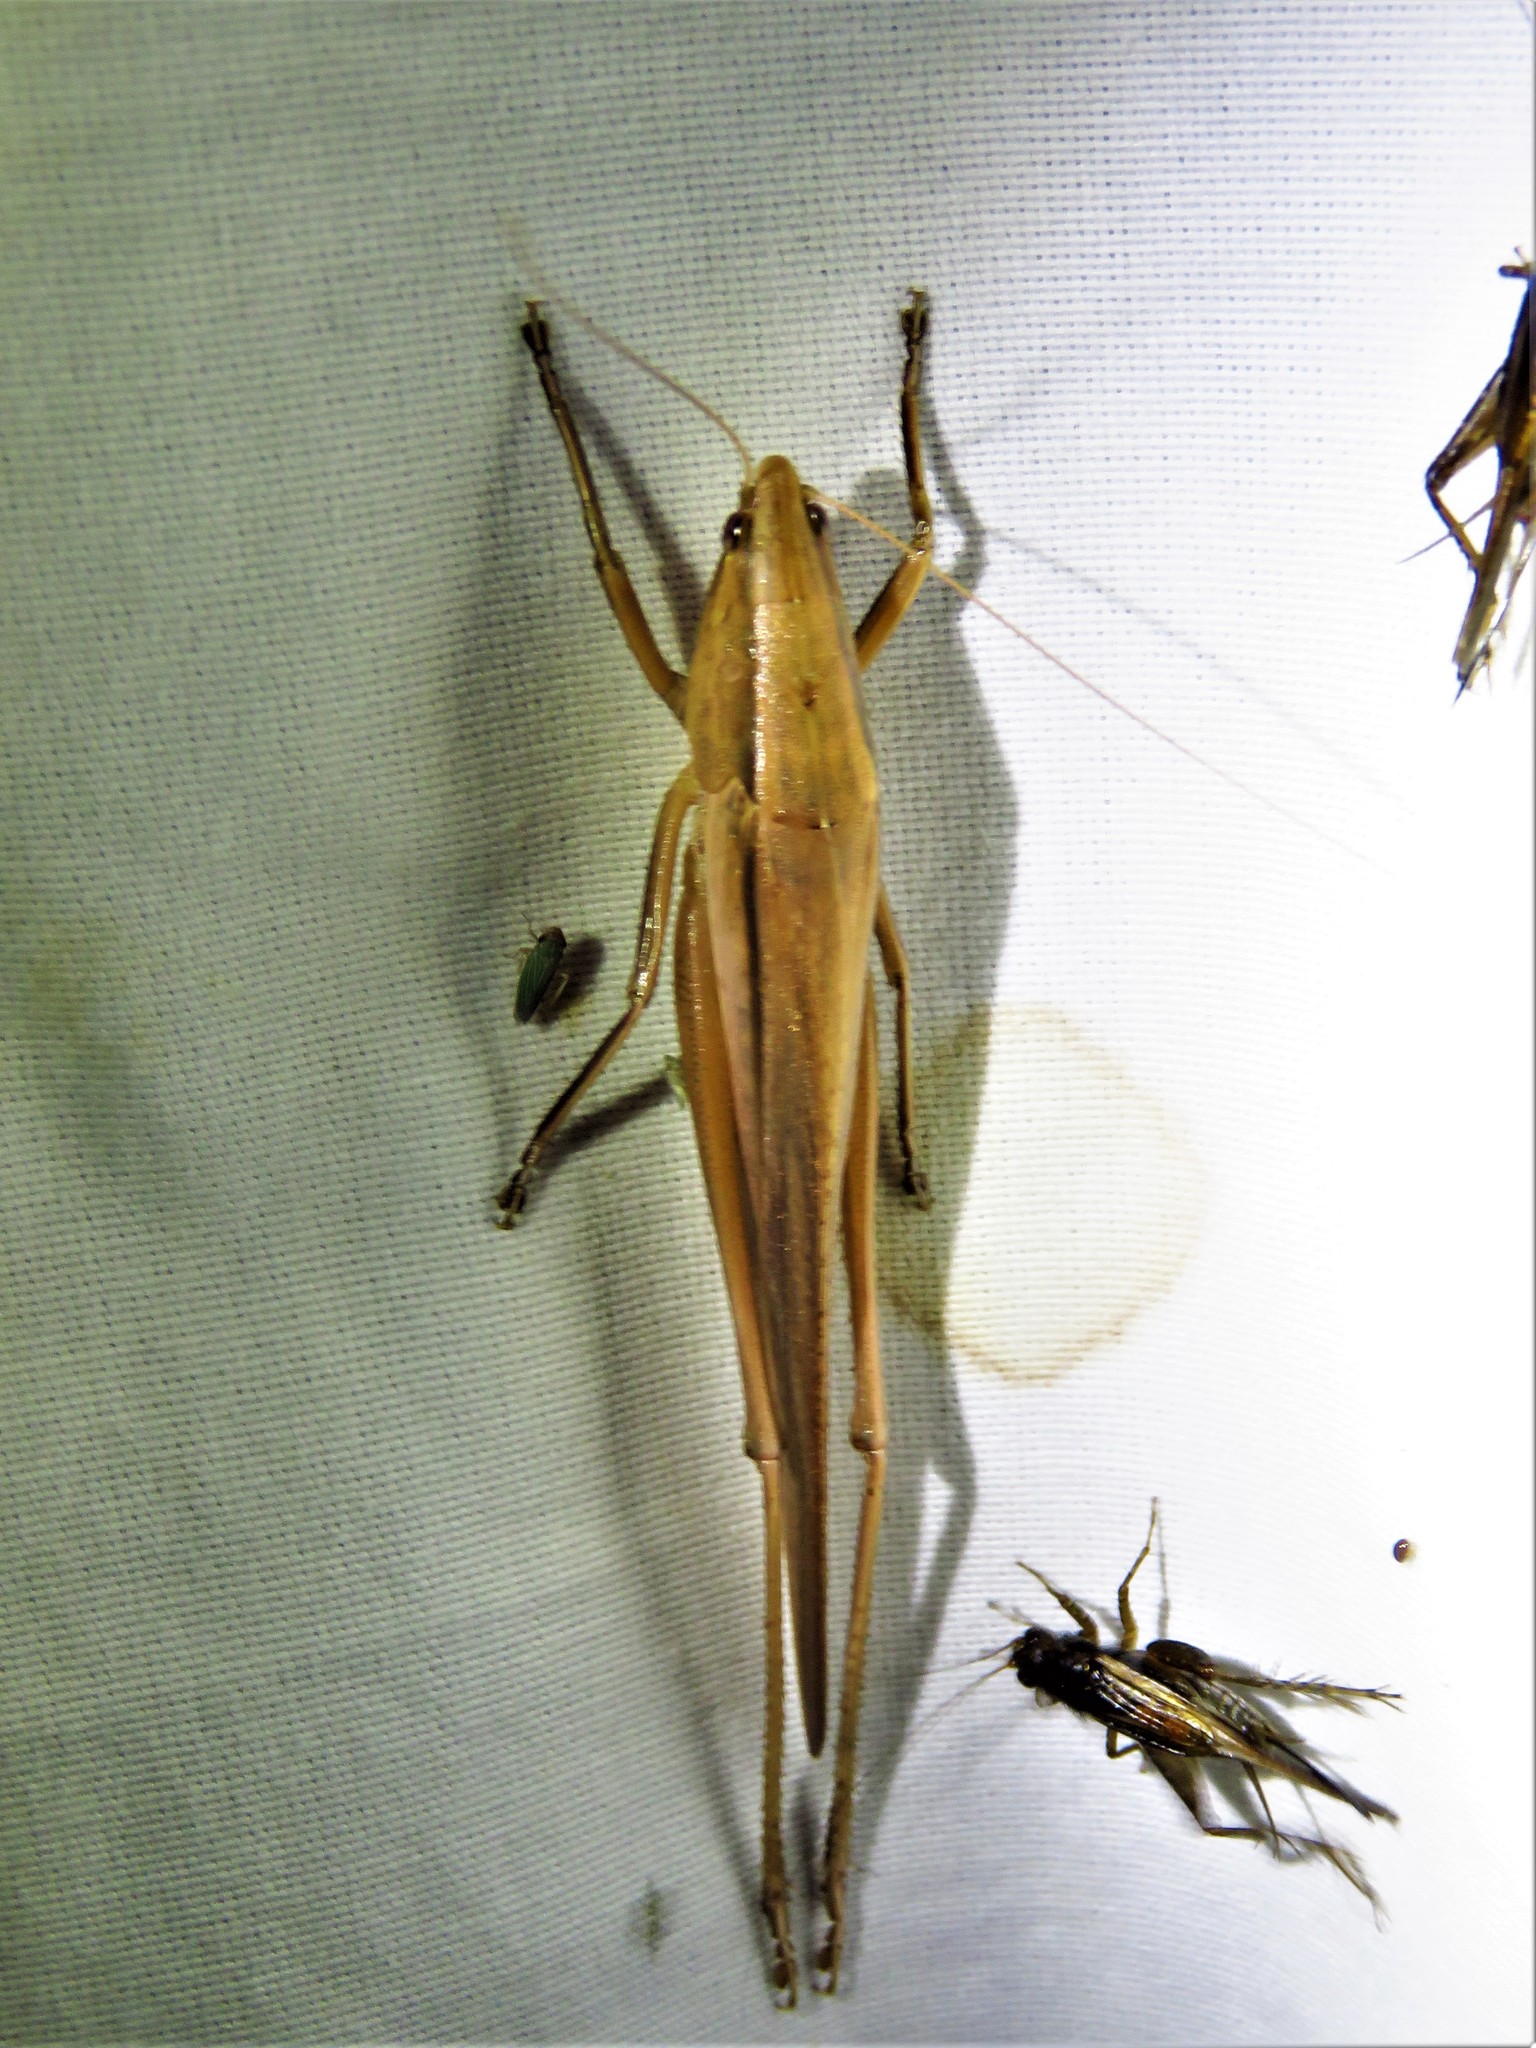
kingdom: Animalia
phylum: Arthropoda
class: Insecta
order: Orthoptera
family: Tettigoniidae
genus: Neoconocephalus
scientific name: Neoconocephalus triops
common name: Broad-tipped conehead
